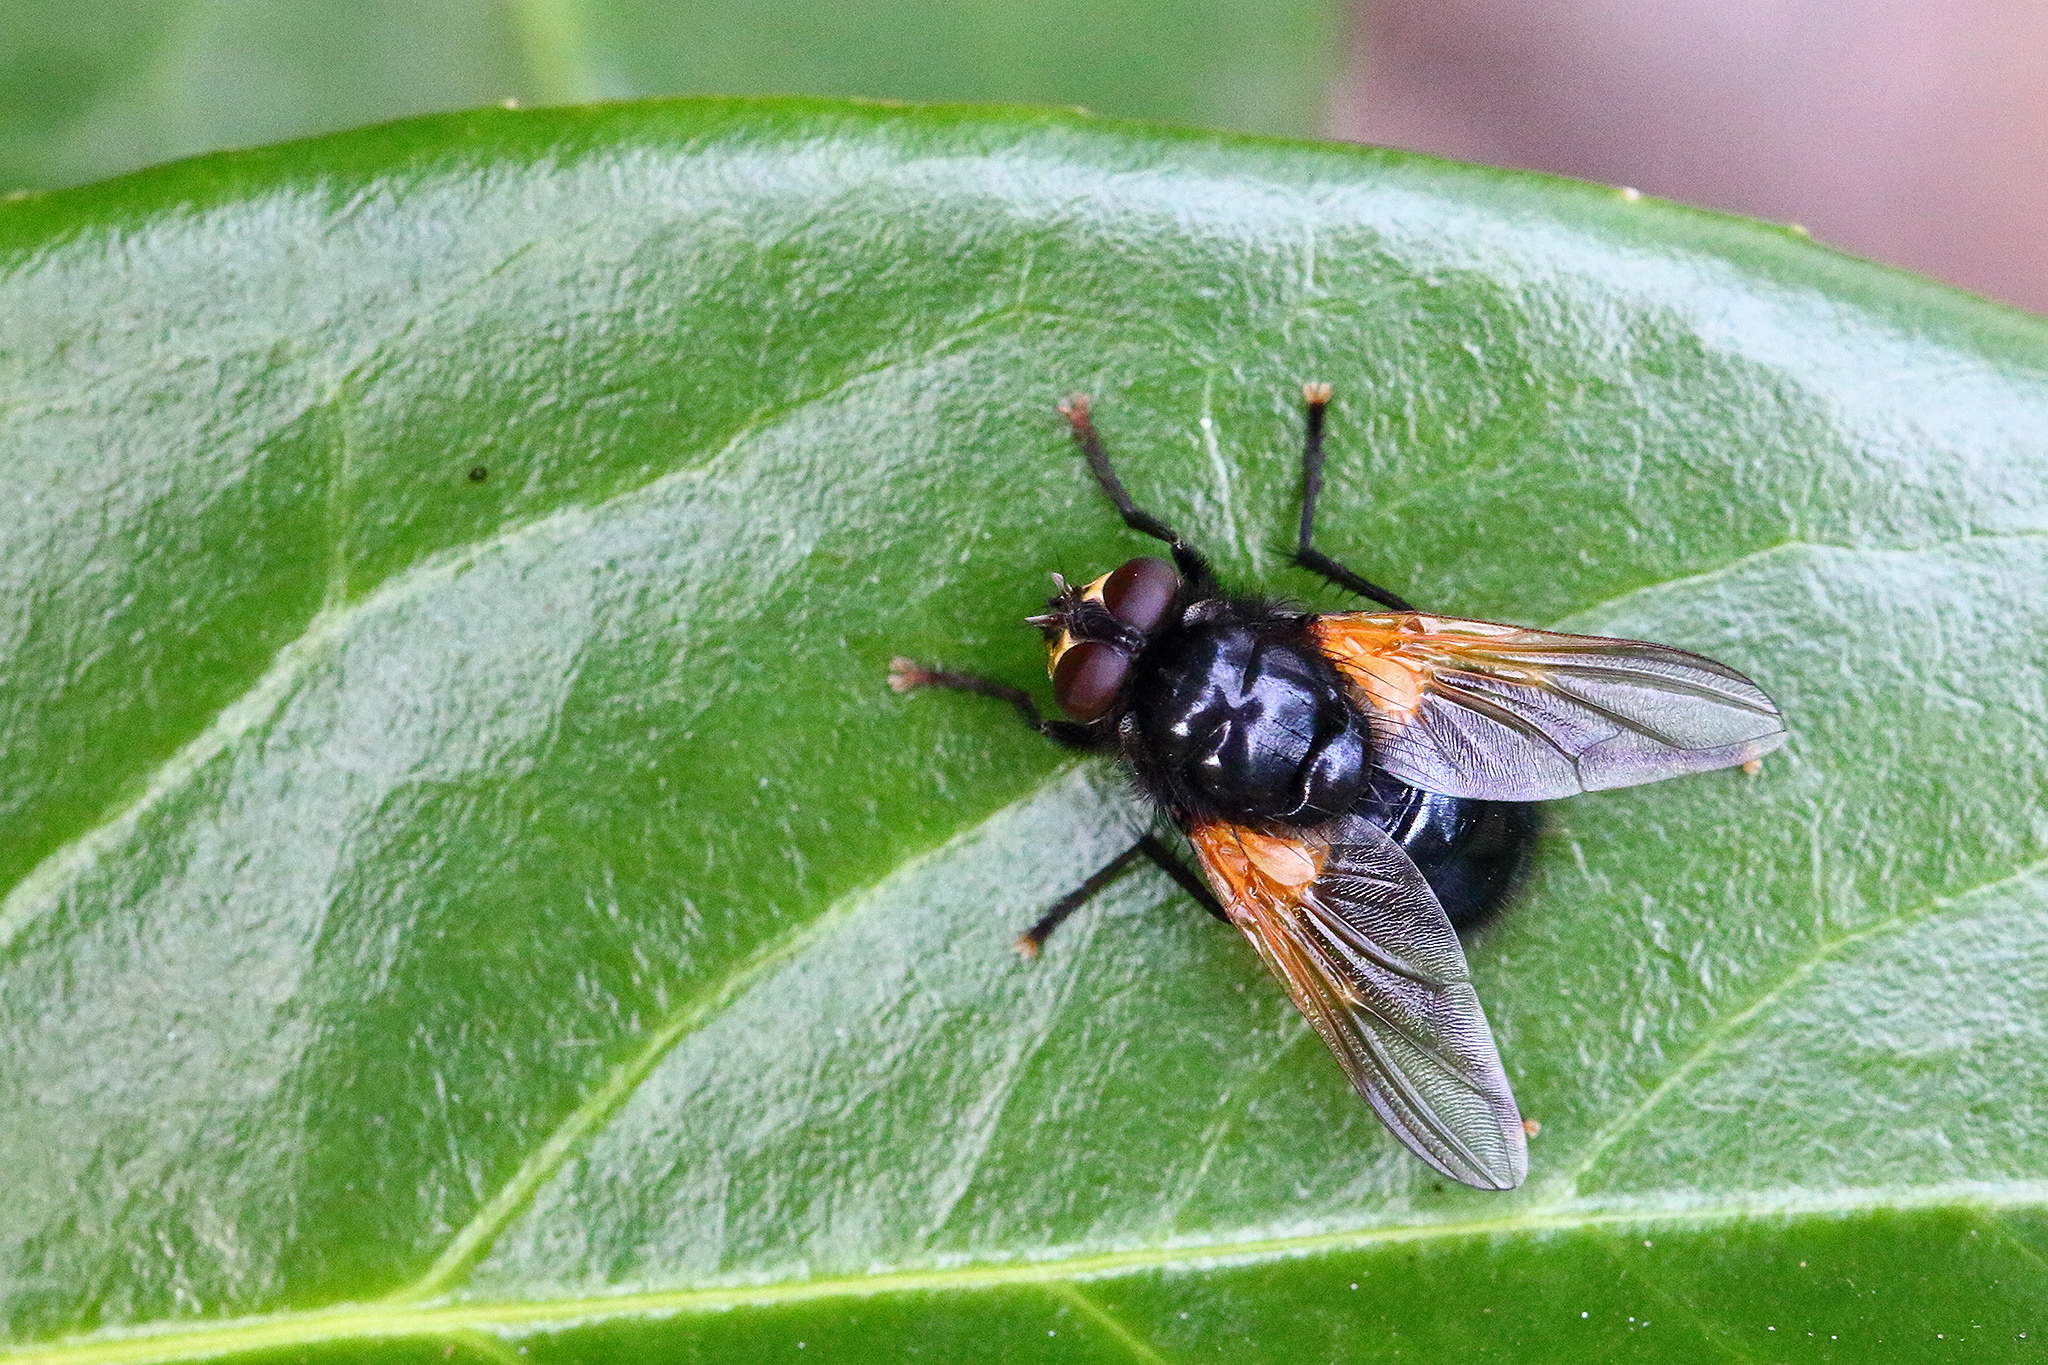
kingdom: Animalia
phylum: Arthropoda
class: Insecta
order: Diptera
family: Muscidae
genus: Mesembrina
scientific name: Mesembrina meridiana
